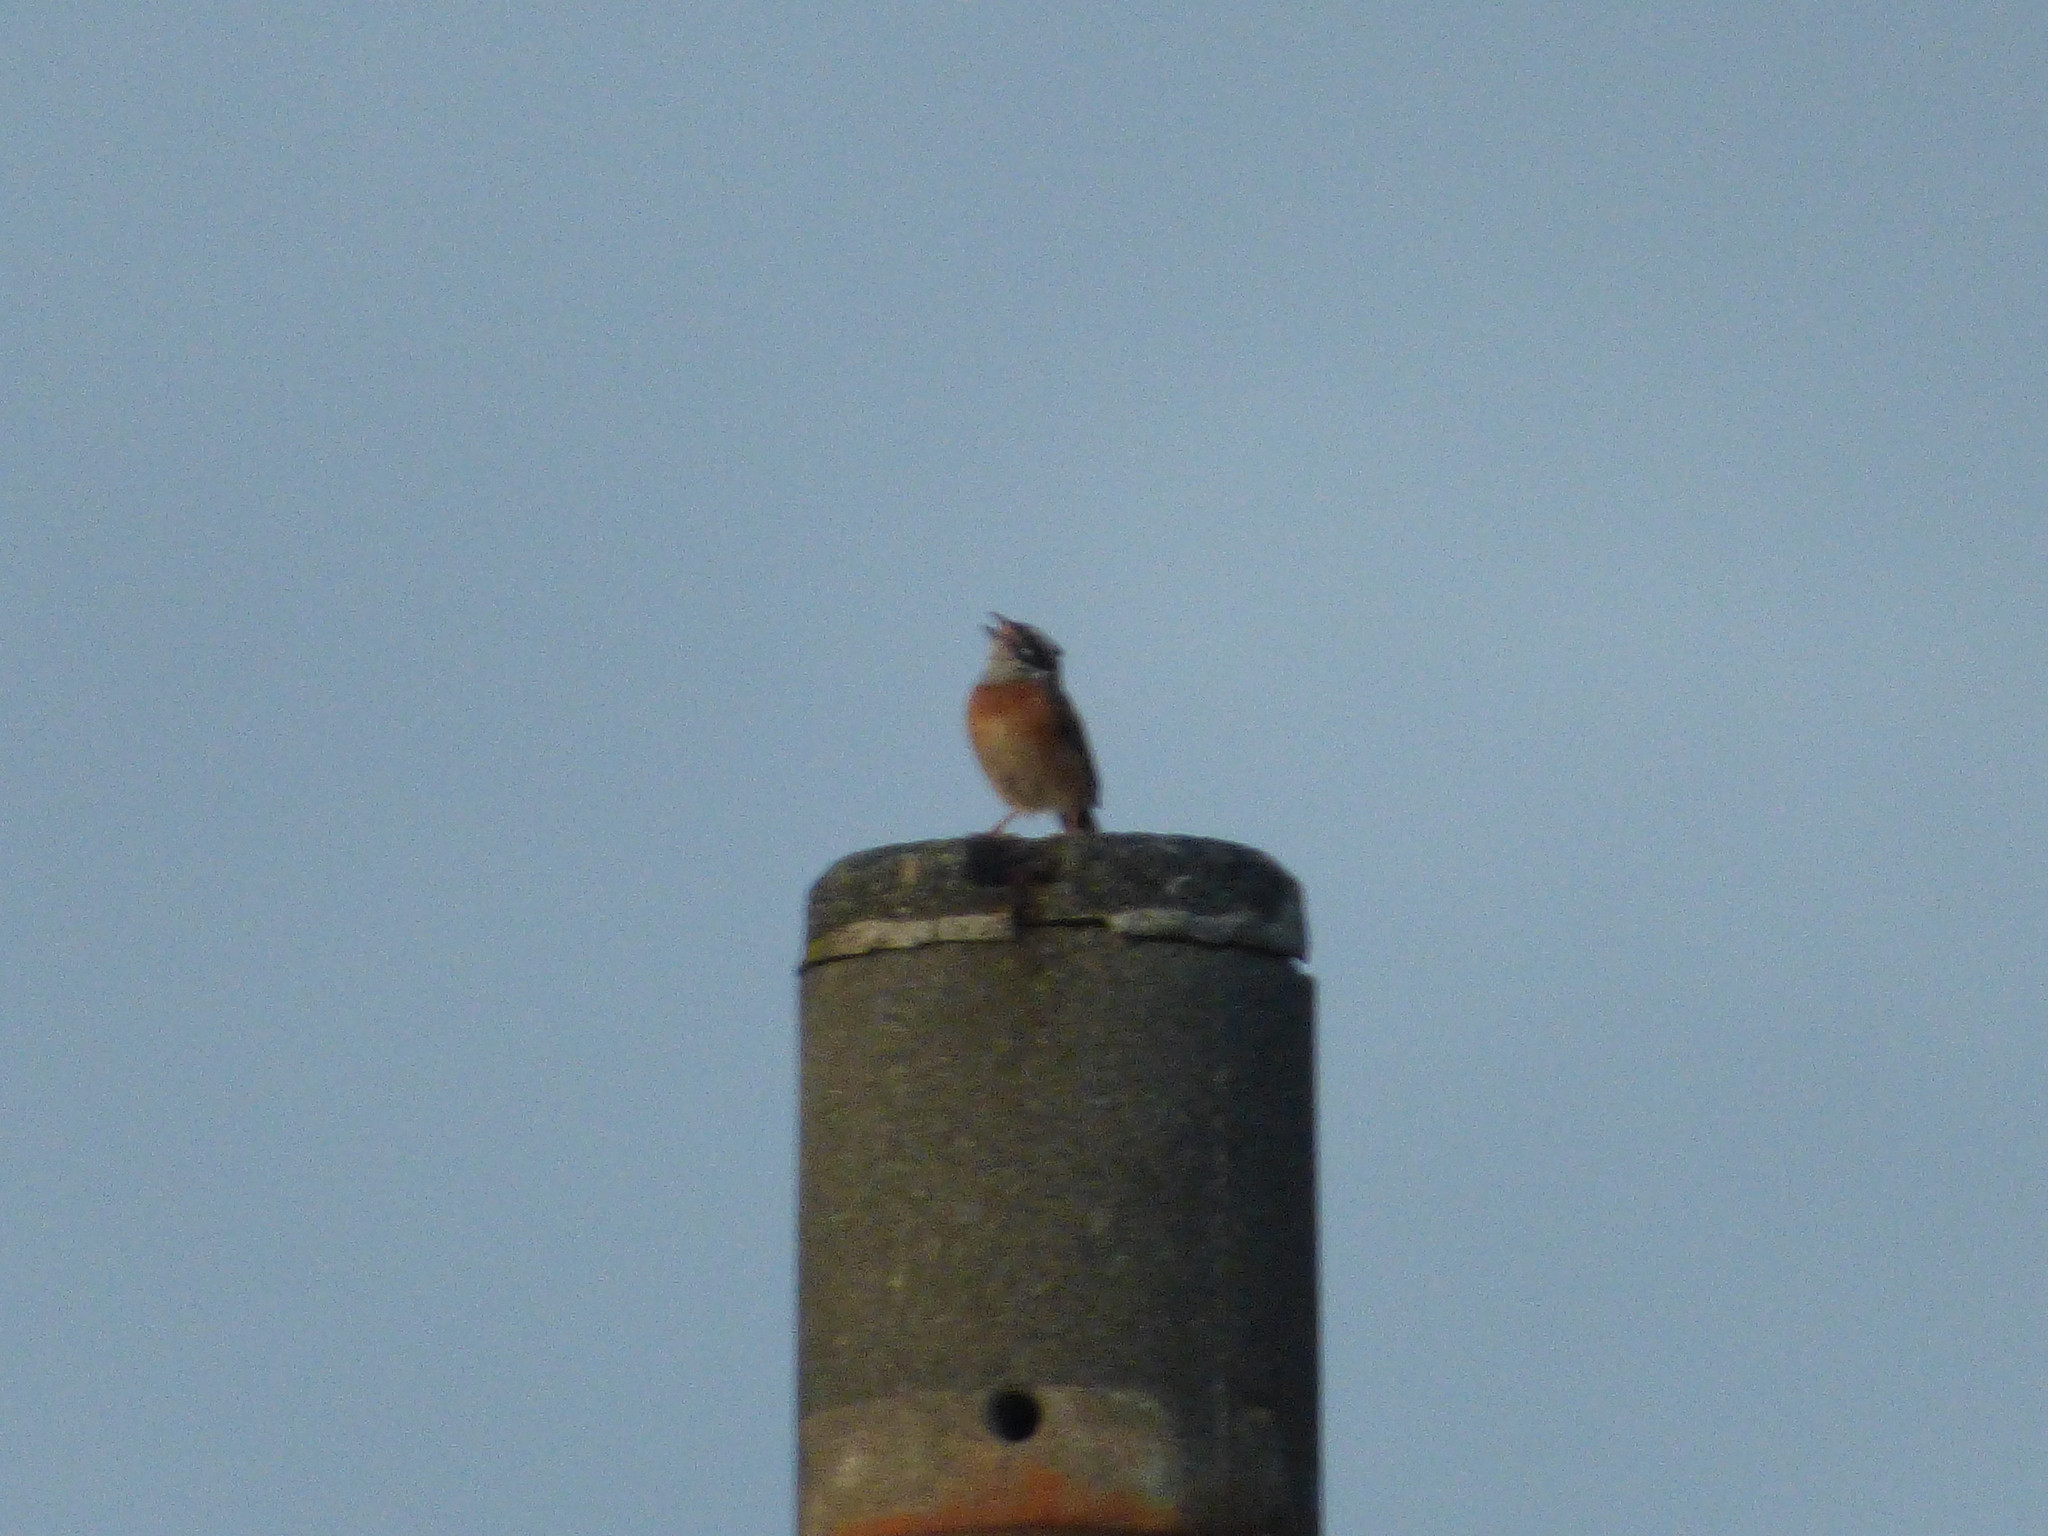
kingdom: Animalia
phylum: Chordata
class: Aves
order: Passeriformes
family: Emberizidae
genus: Emberiza
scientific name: Emberiza cioides
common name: Meadow bunting
